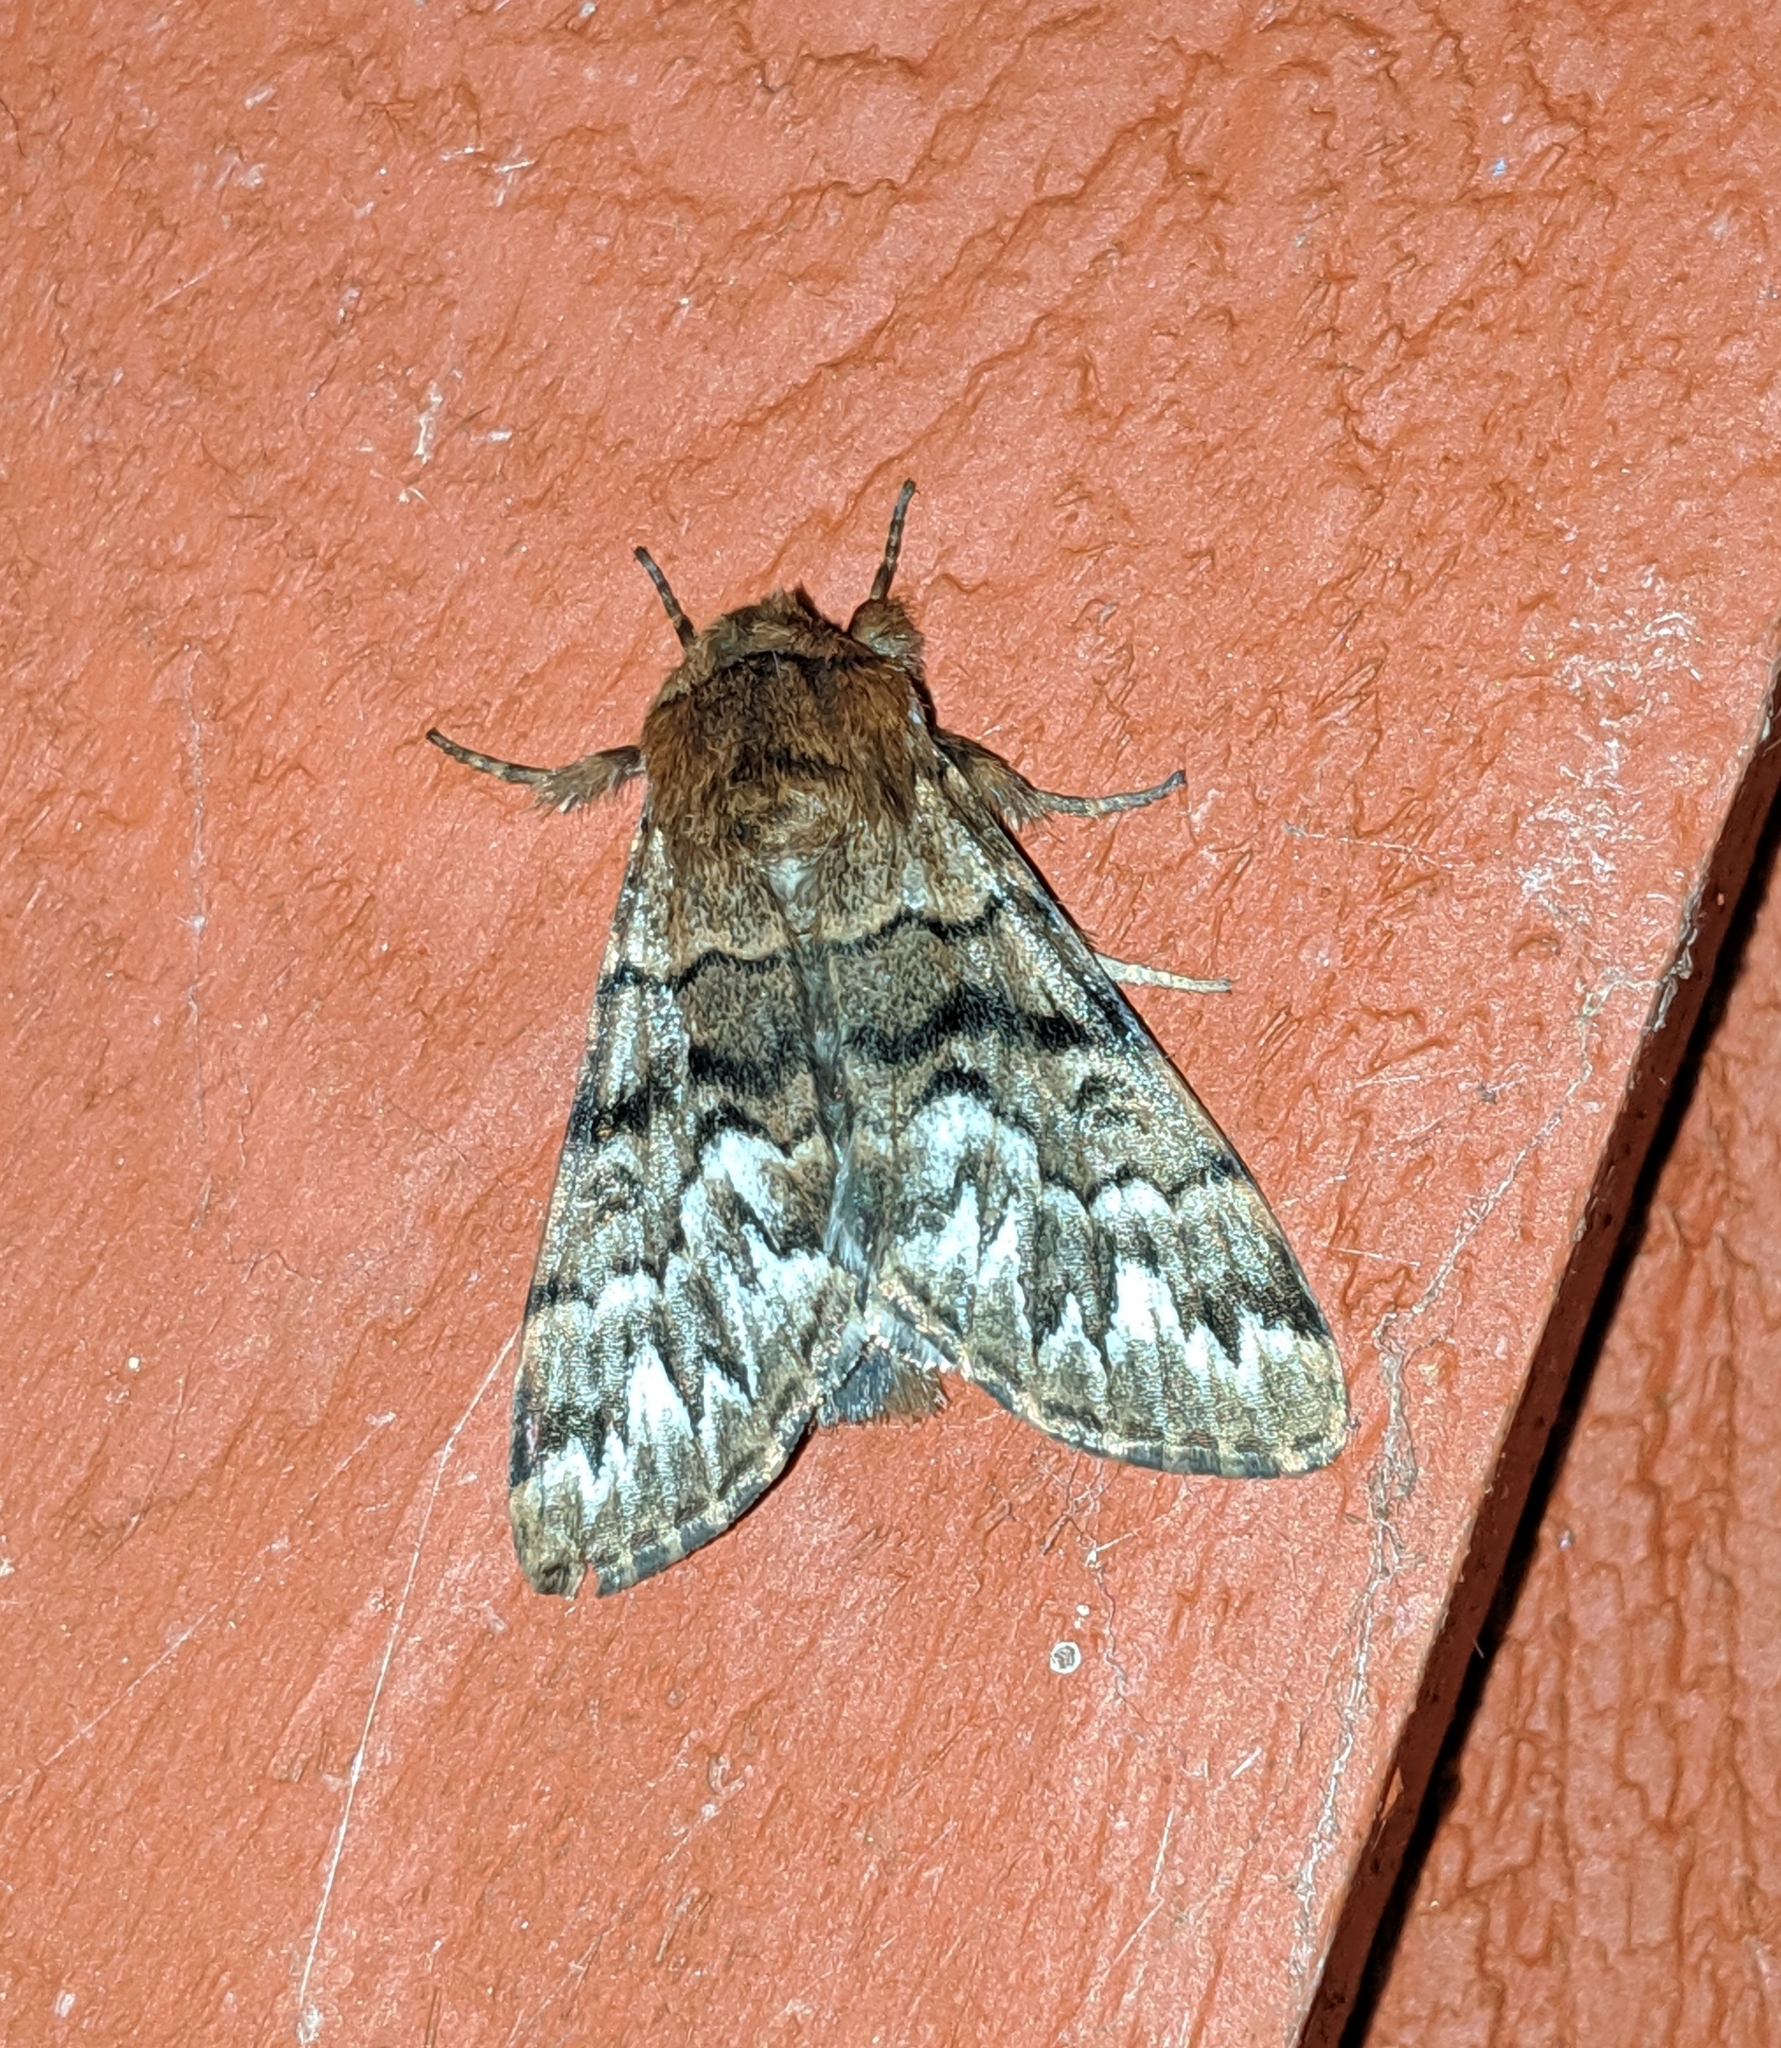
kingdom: Animalia
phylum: Arthropoda
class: Insecta
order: Lepidoptera
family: Noctuidae
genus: Panthea
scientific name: Panthea virginarius
